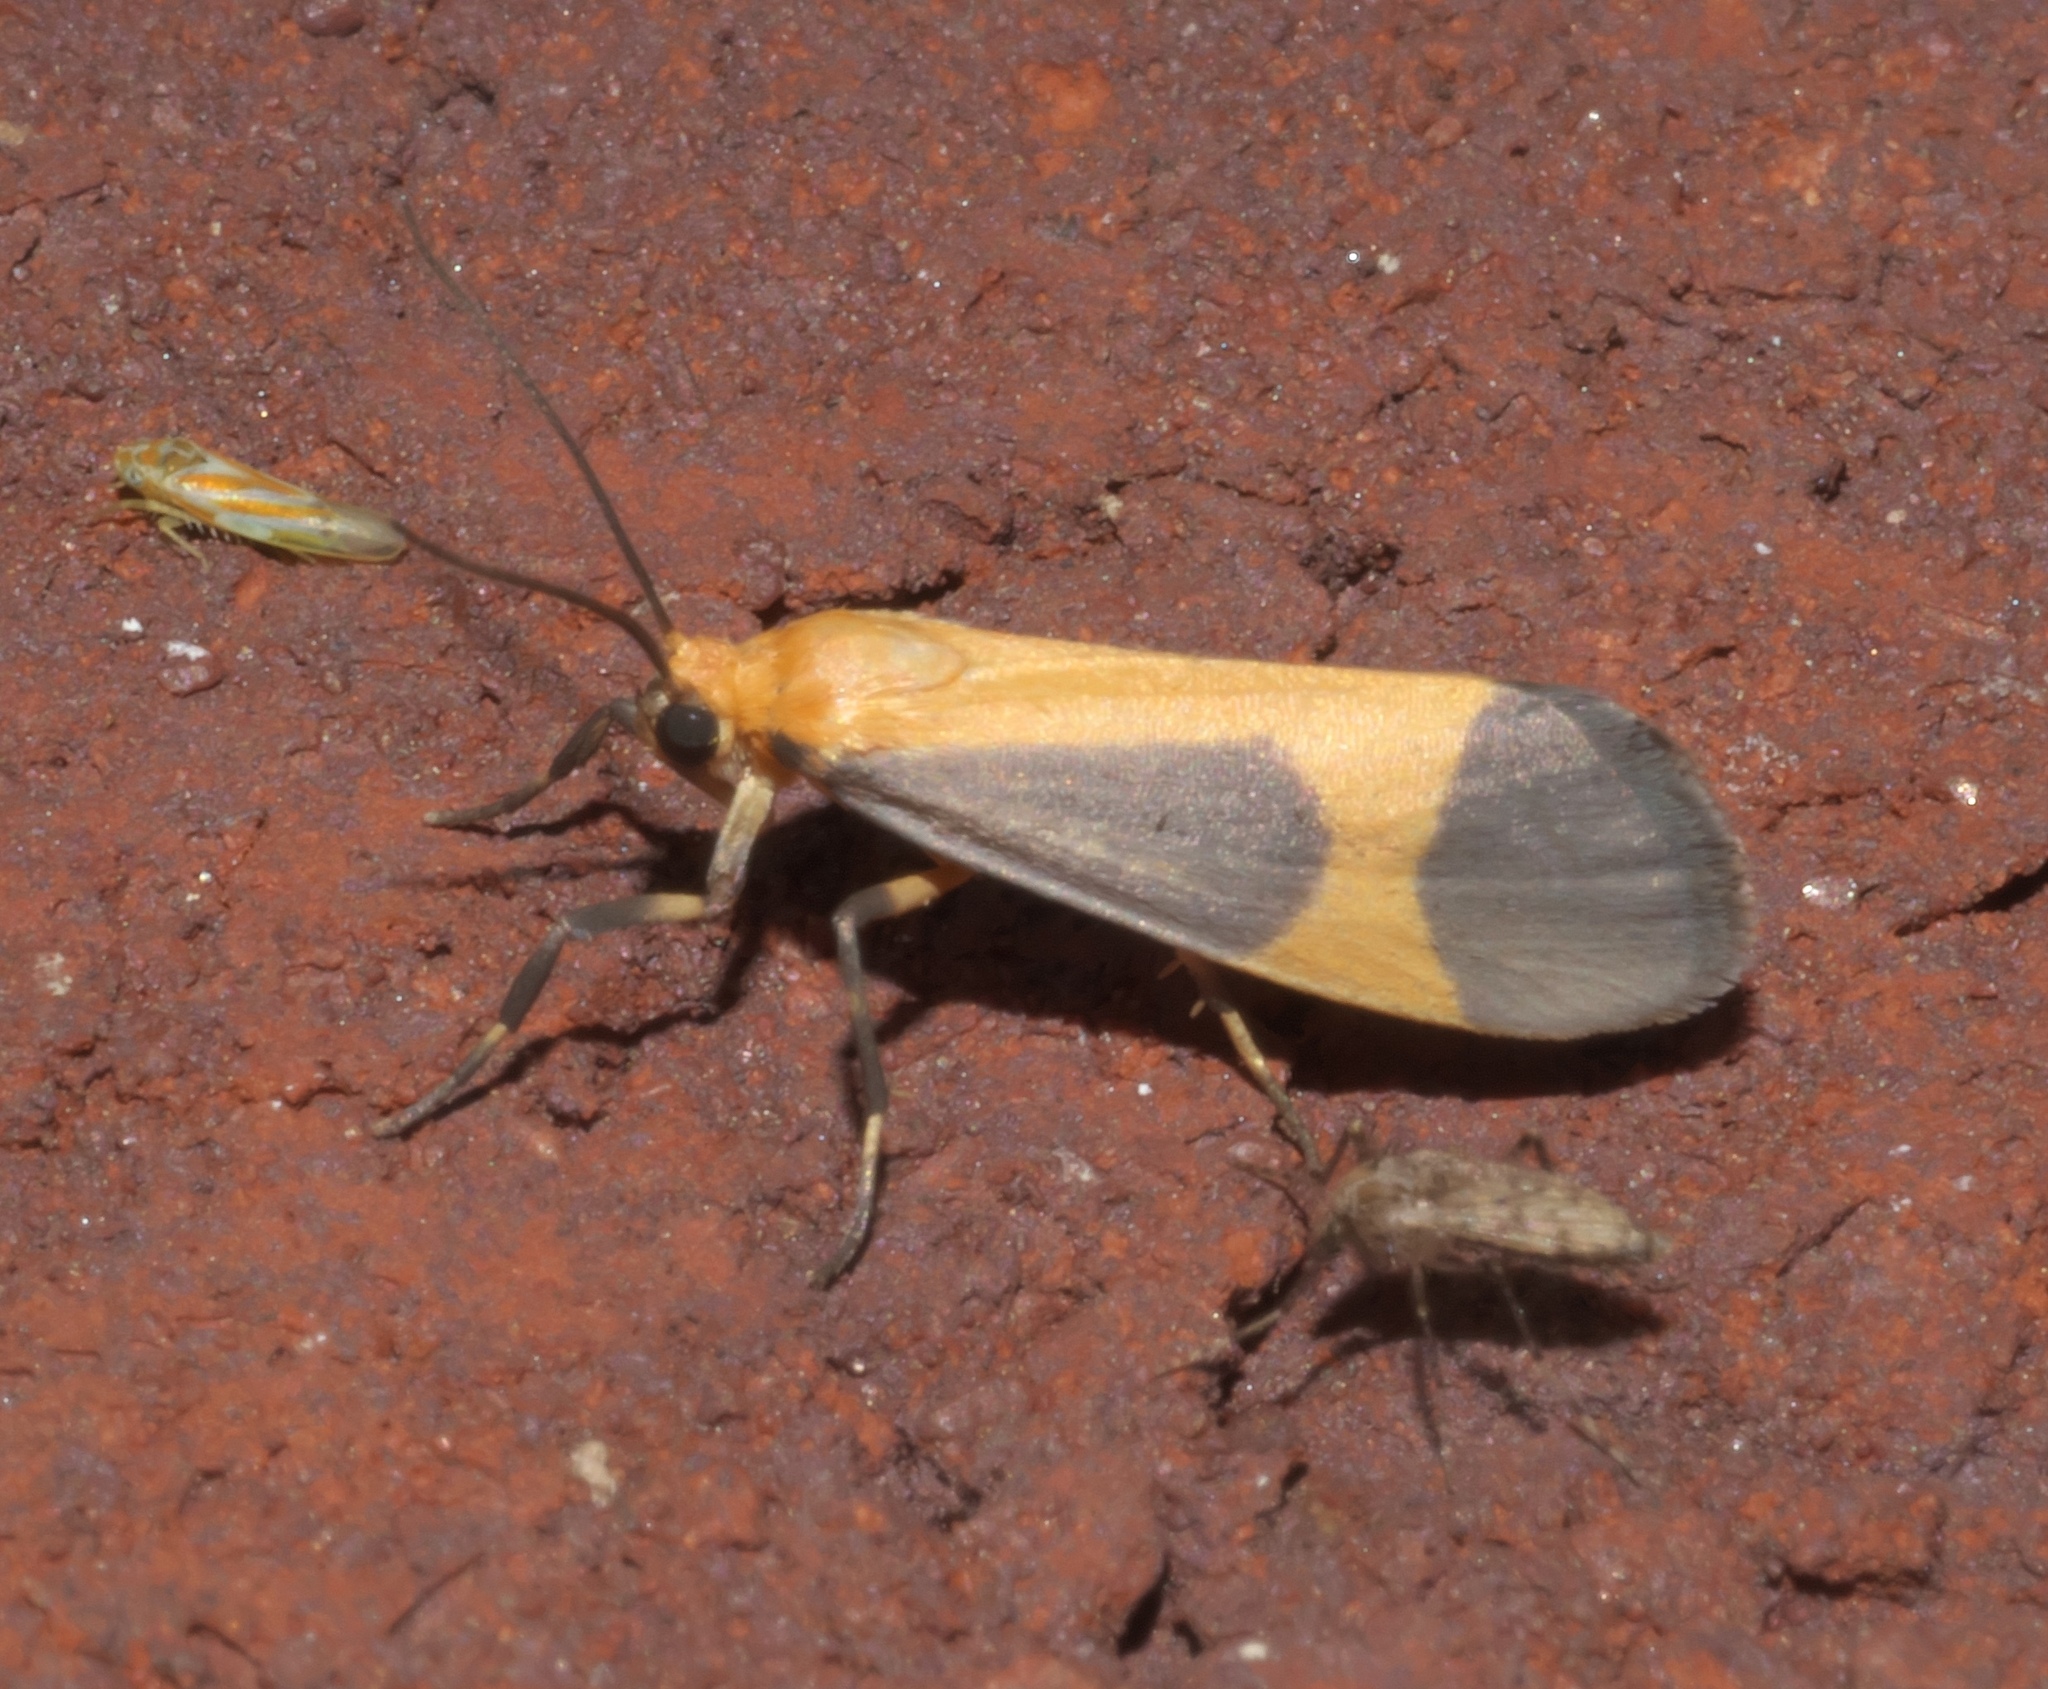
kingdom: Animalia
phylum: Arthropoda
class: Insecta
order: Lepidoptera
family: Erebidae
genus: Cisthene
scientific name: Cisthene picta
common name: Pictured lichen moth
